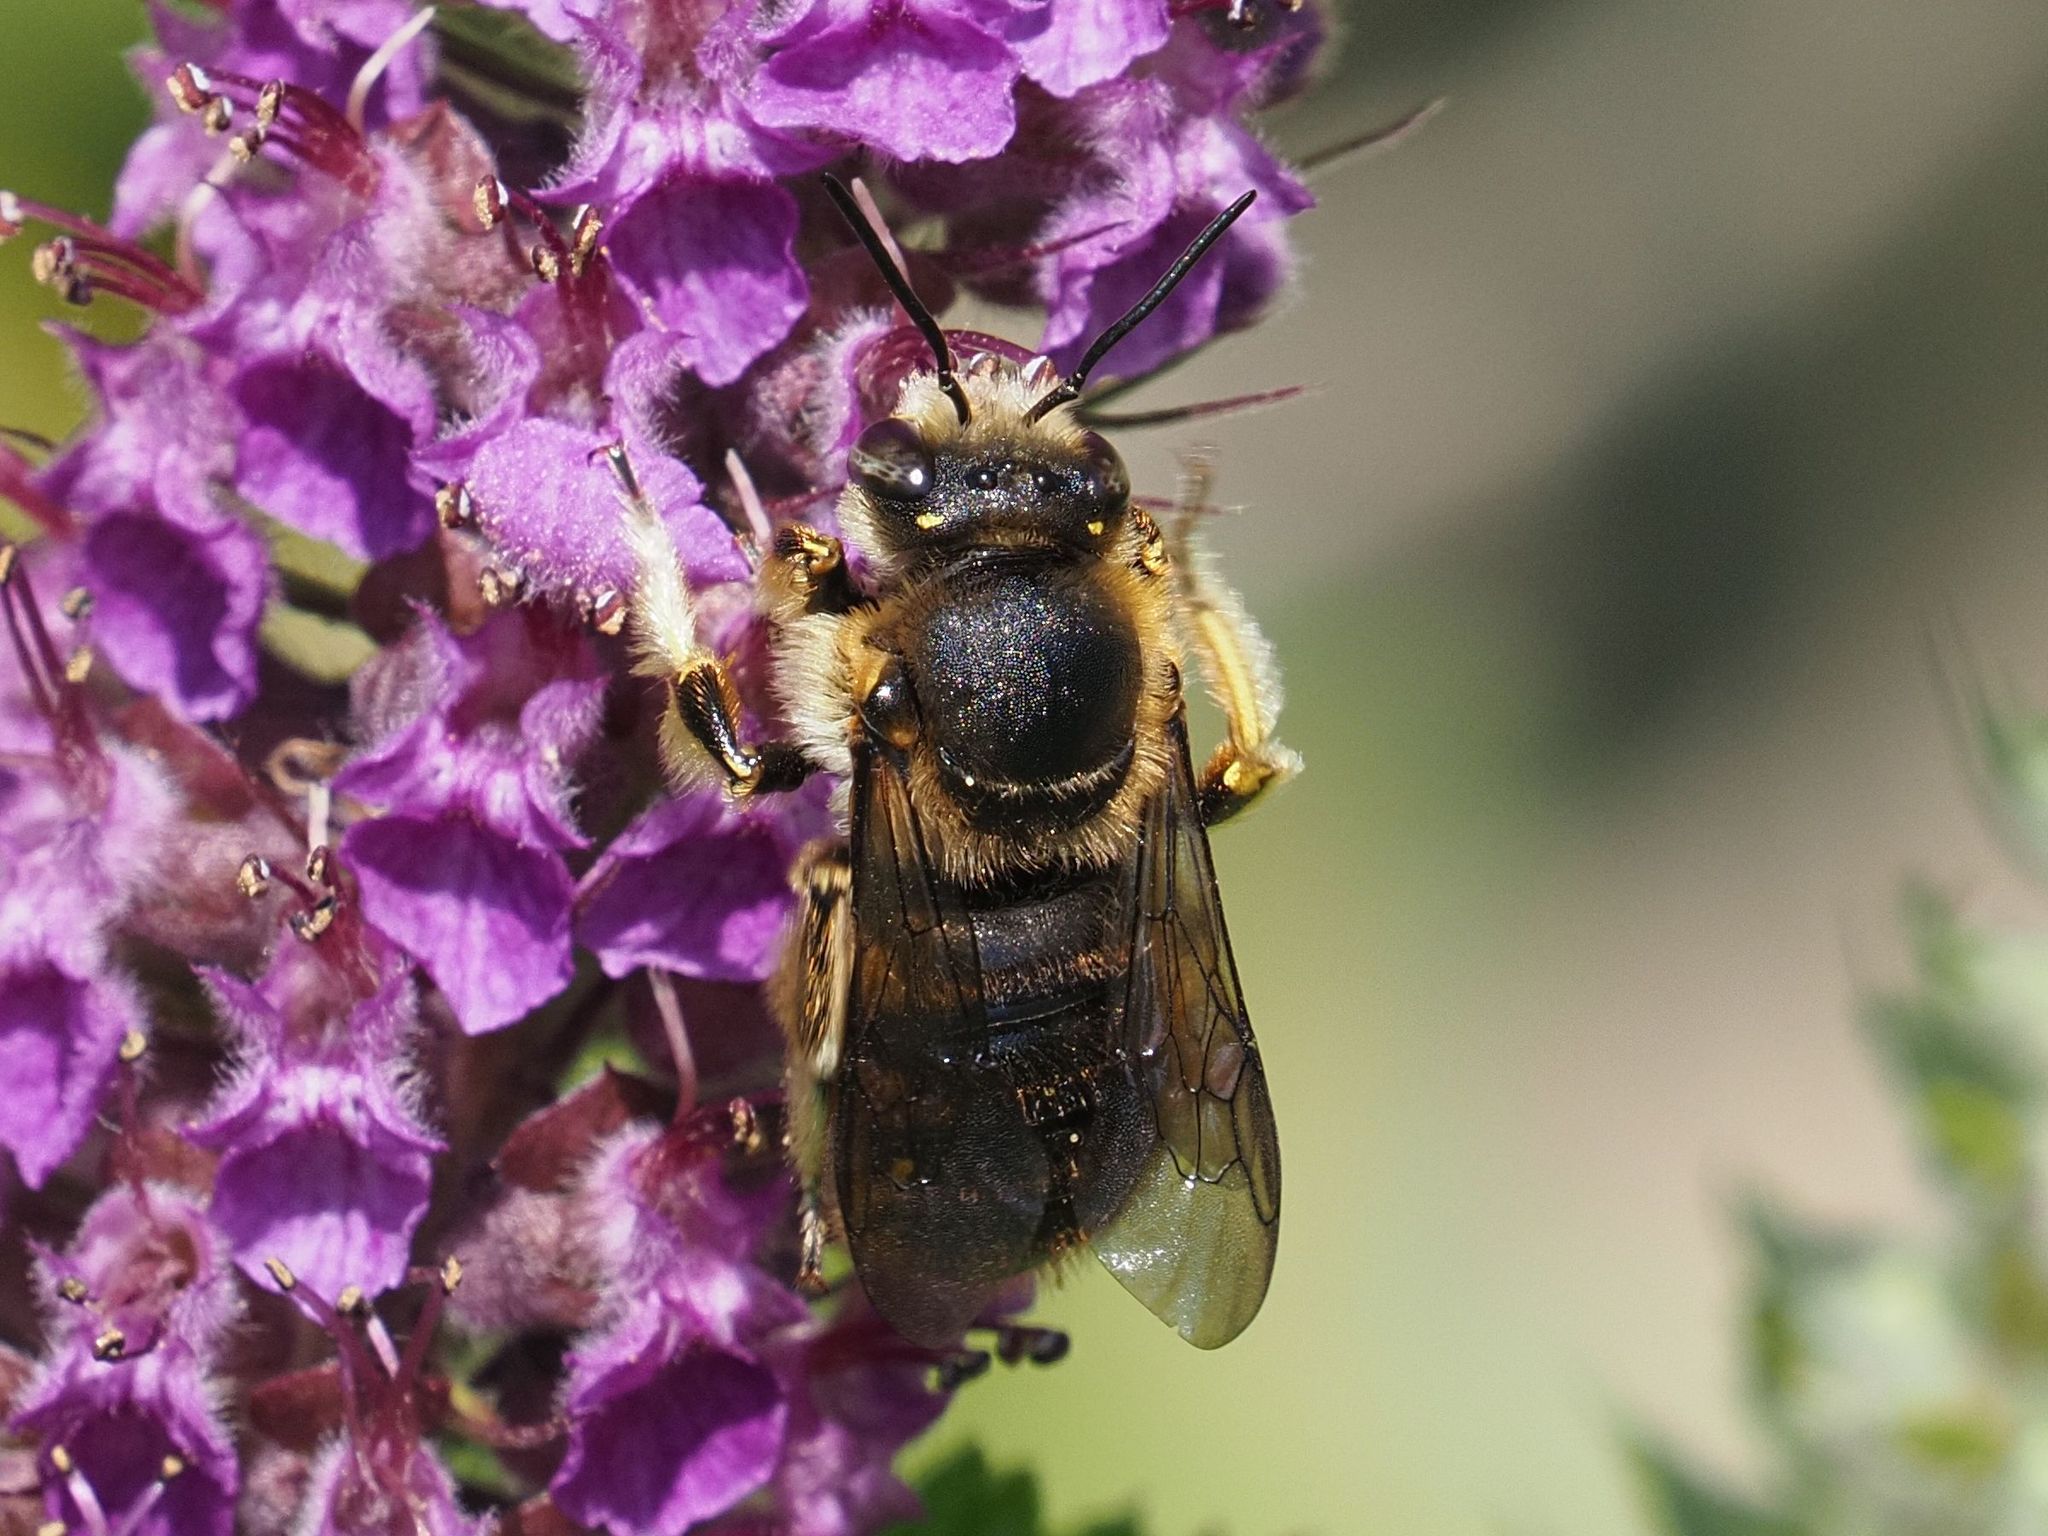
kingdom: Animalia
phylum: Arthropoda
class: Insecta
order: Hymenoptera
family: Megachilidae
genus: Anthidium
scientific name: Anthidium manicatum
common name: Wool carder bee
